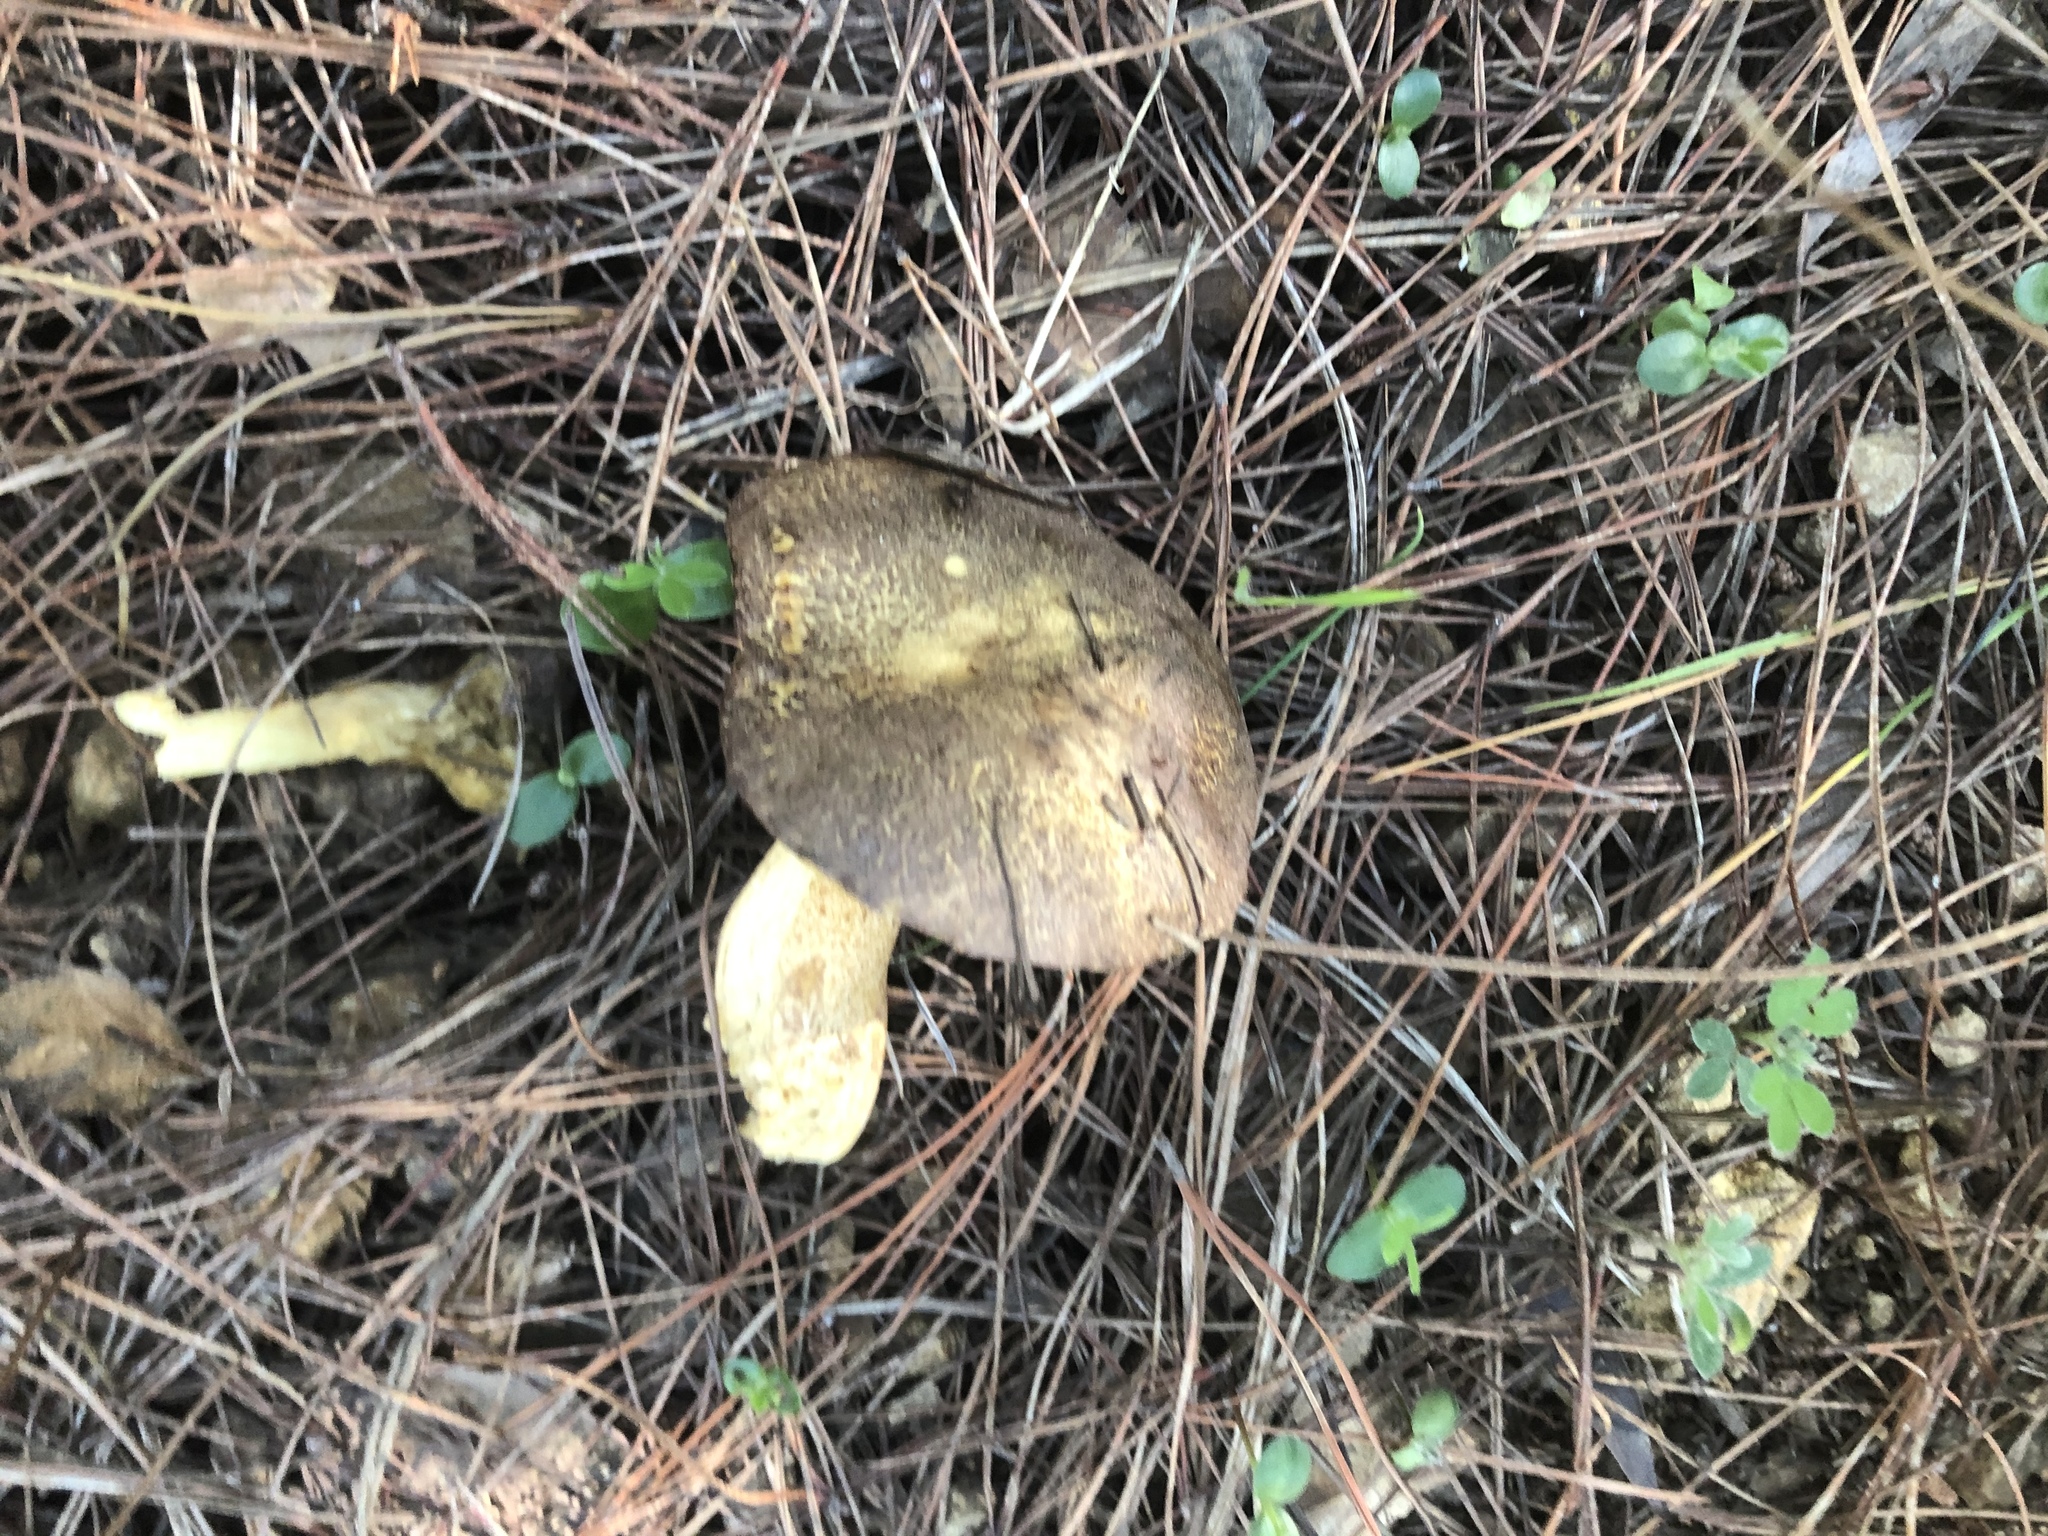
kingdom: Fungi
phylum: Basidiomycota
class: Agaricomycetes
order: Boletales
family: Suillaceae
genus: Suillus
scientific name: Suillus fuscotomentosus
